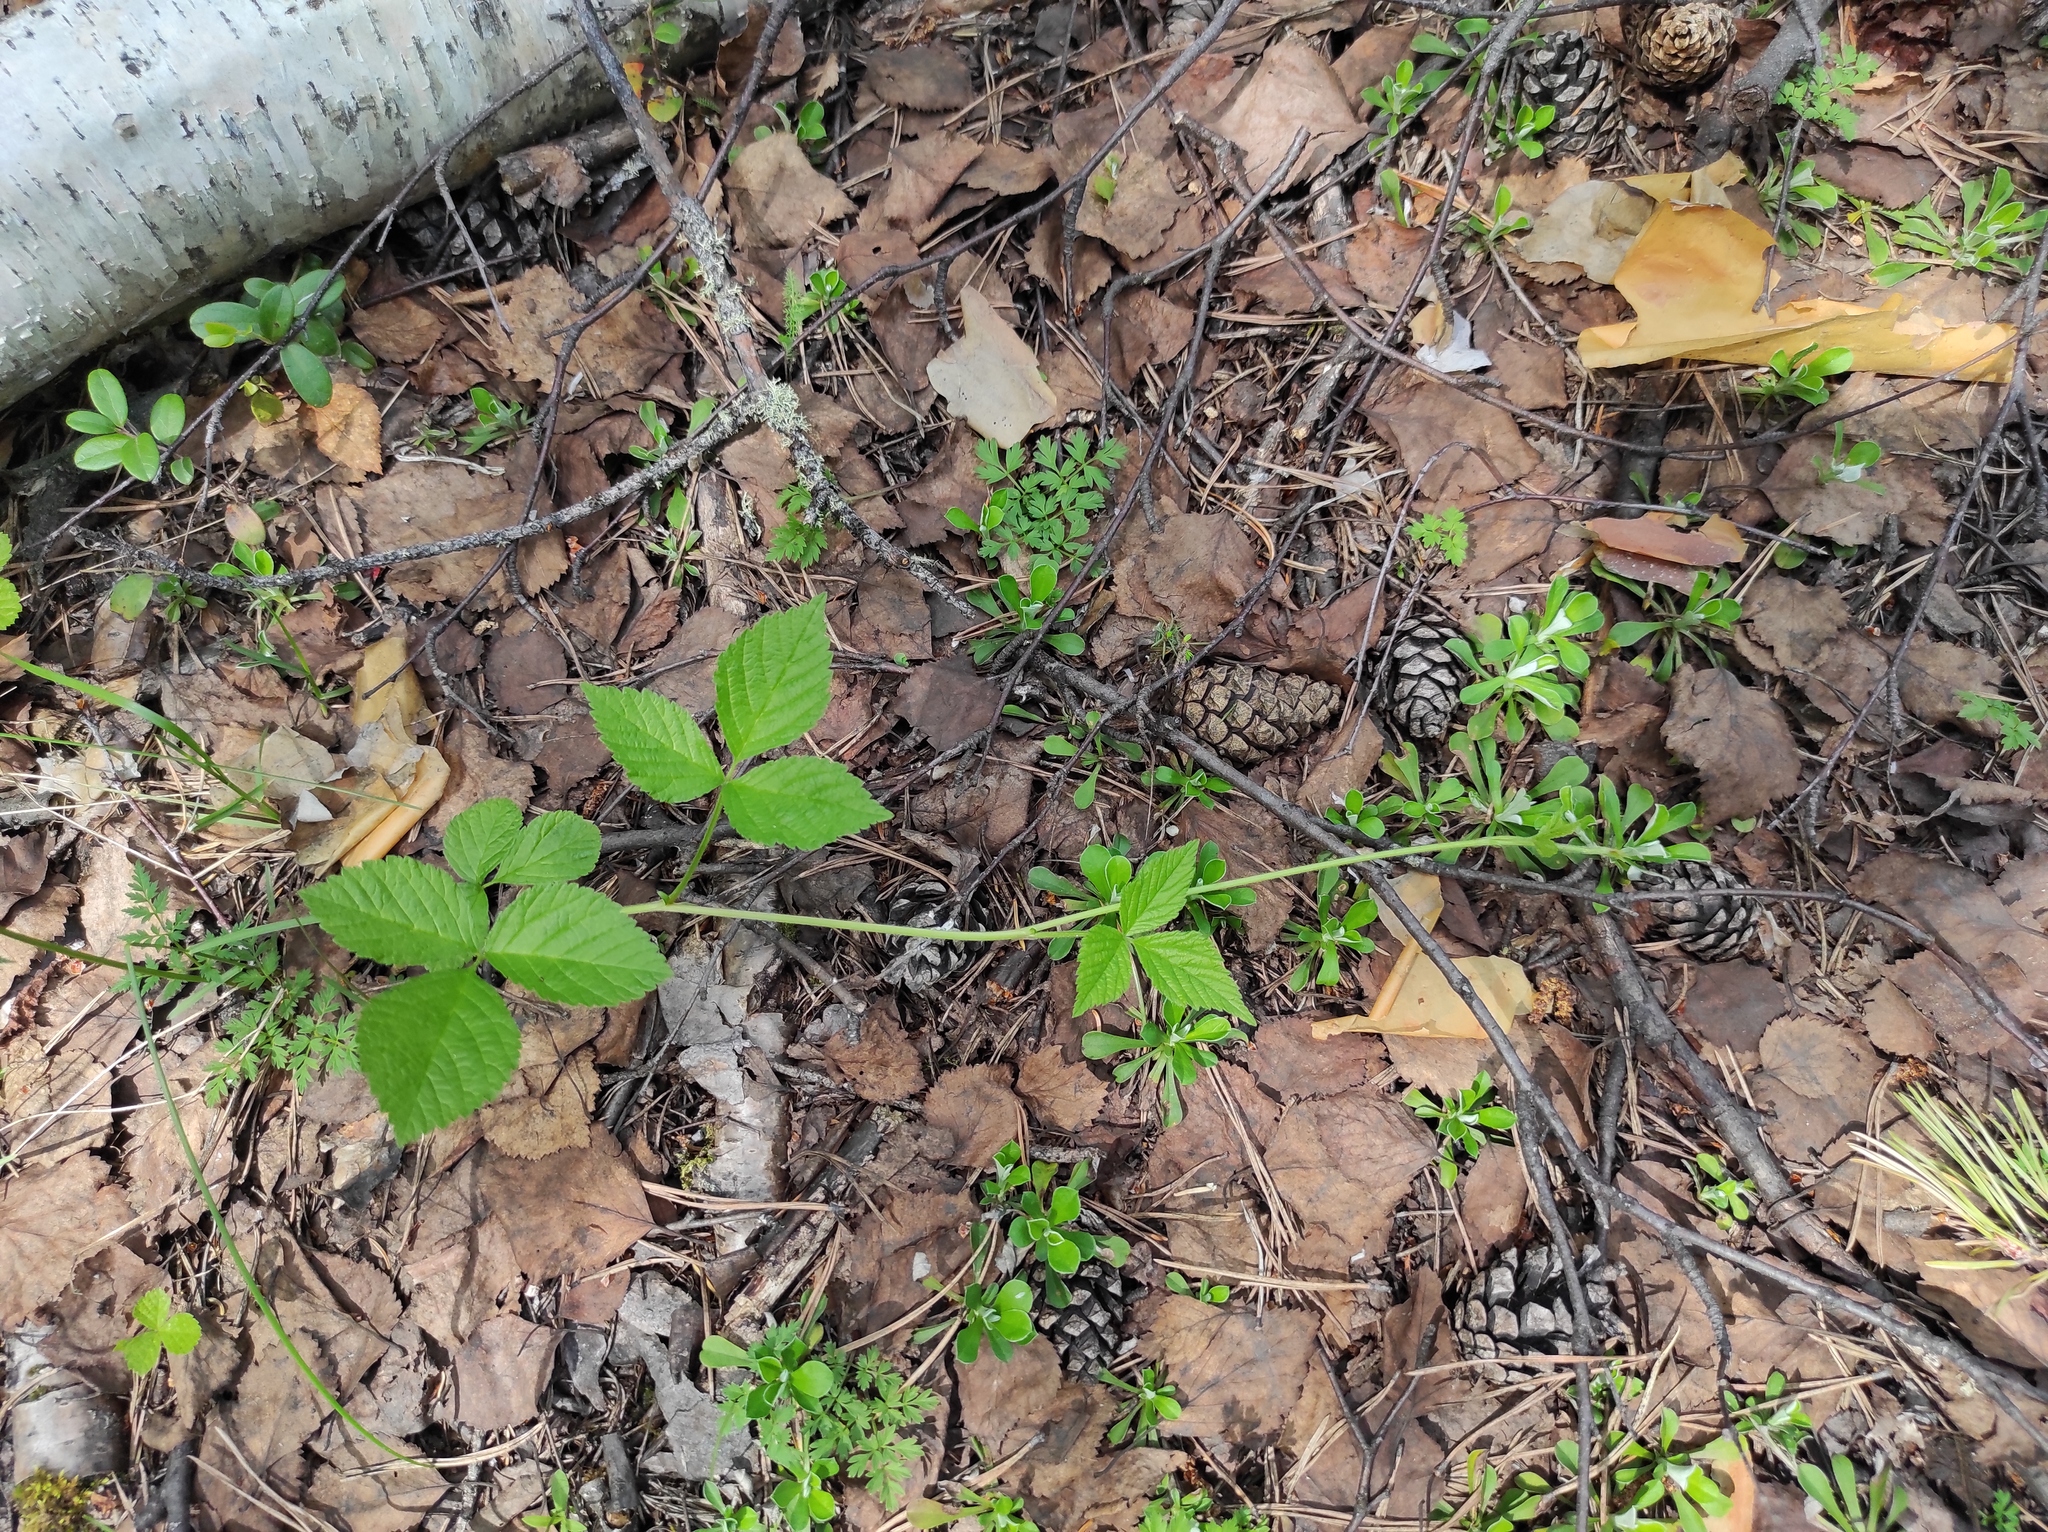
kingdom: Plantae
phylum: Tracheophyta
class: Magnoliopsida
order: Asterales
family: Asteraceae
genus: Antennaria
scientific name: Antennaria dioica
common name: Mountain everlasting
